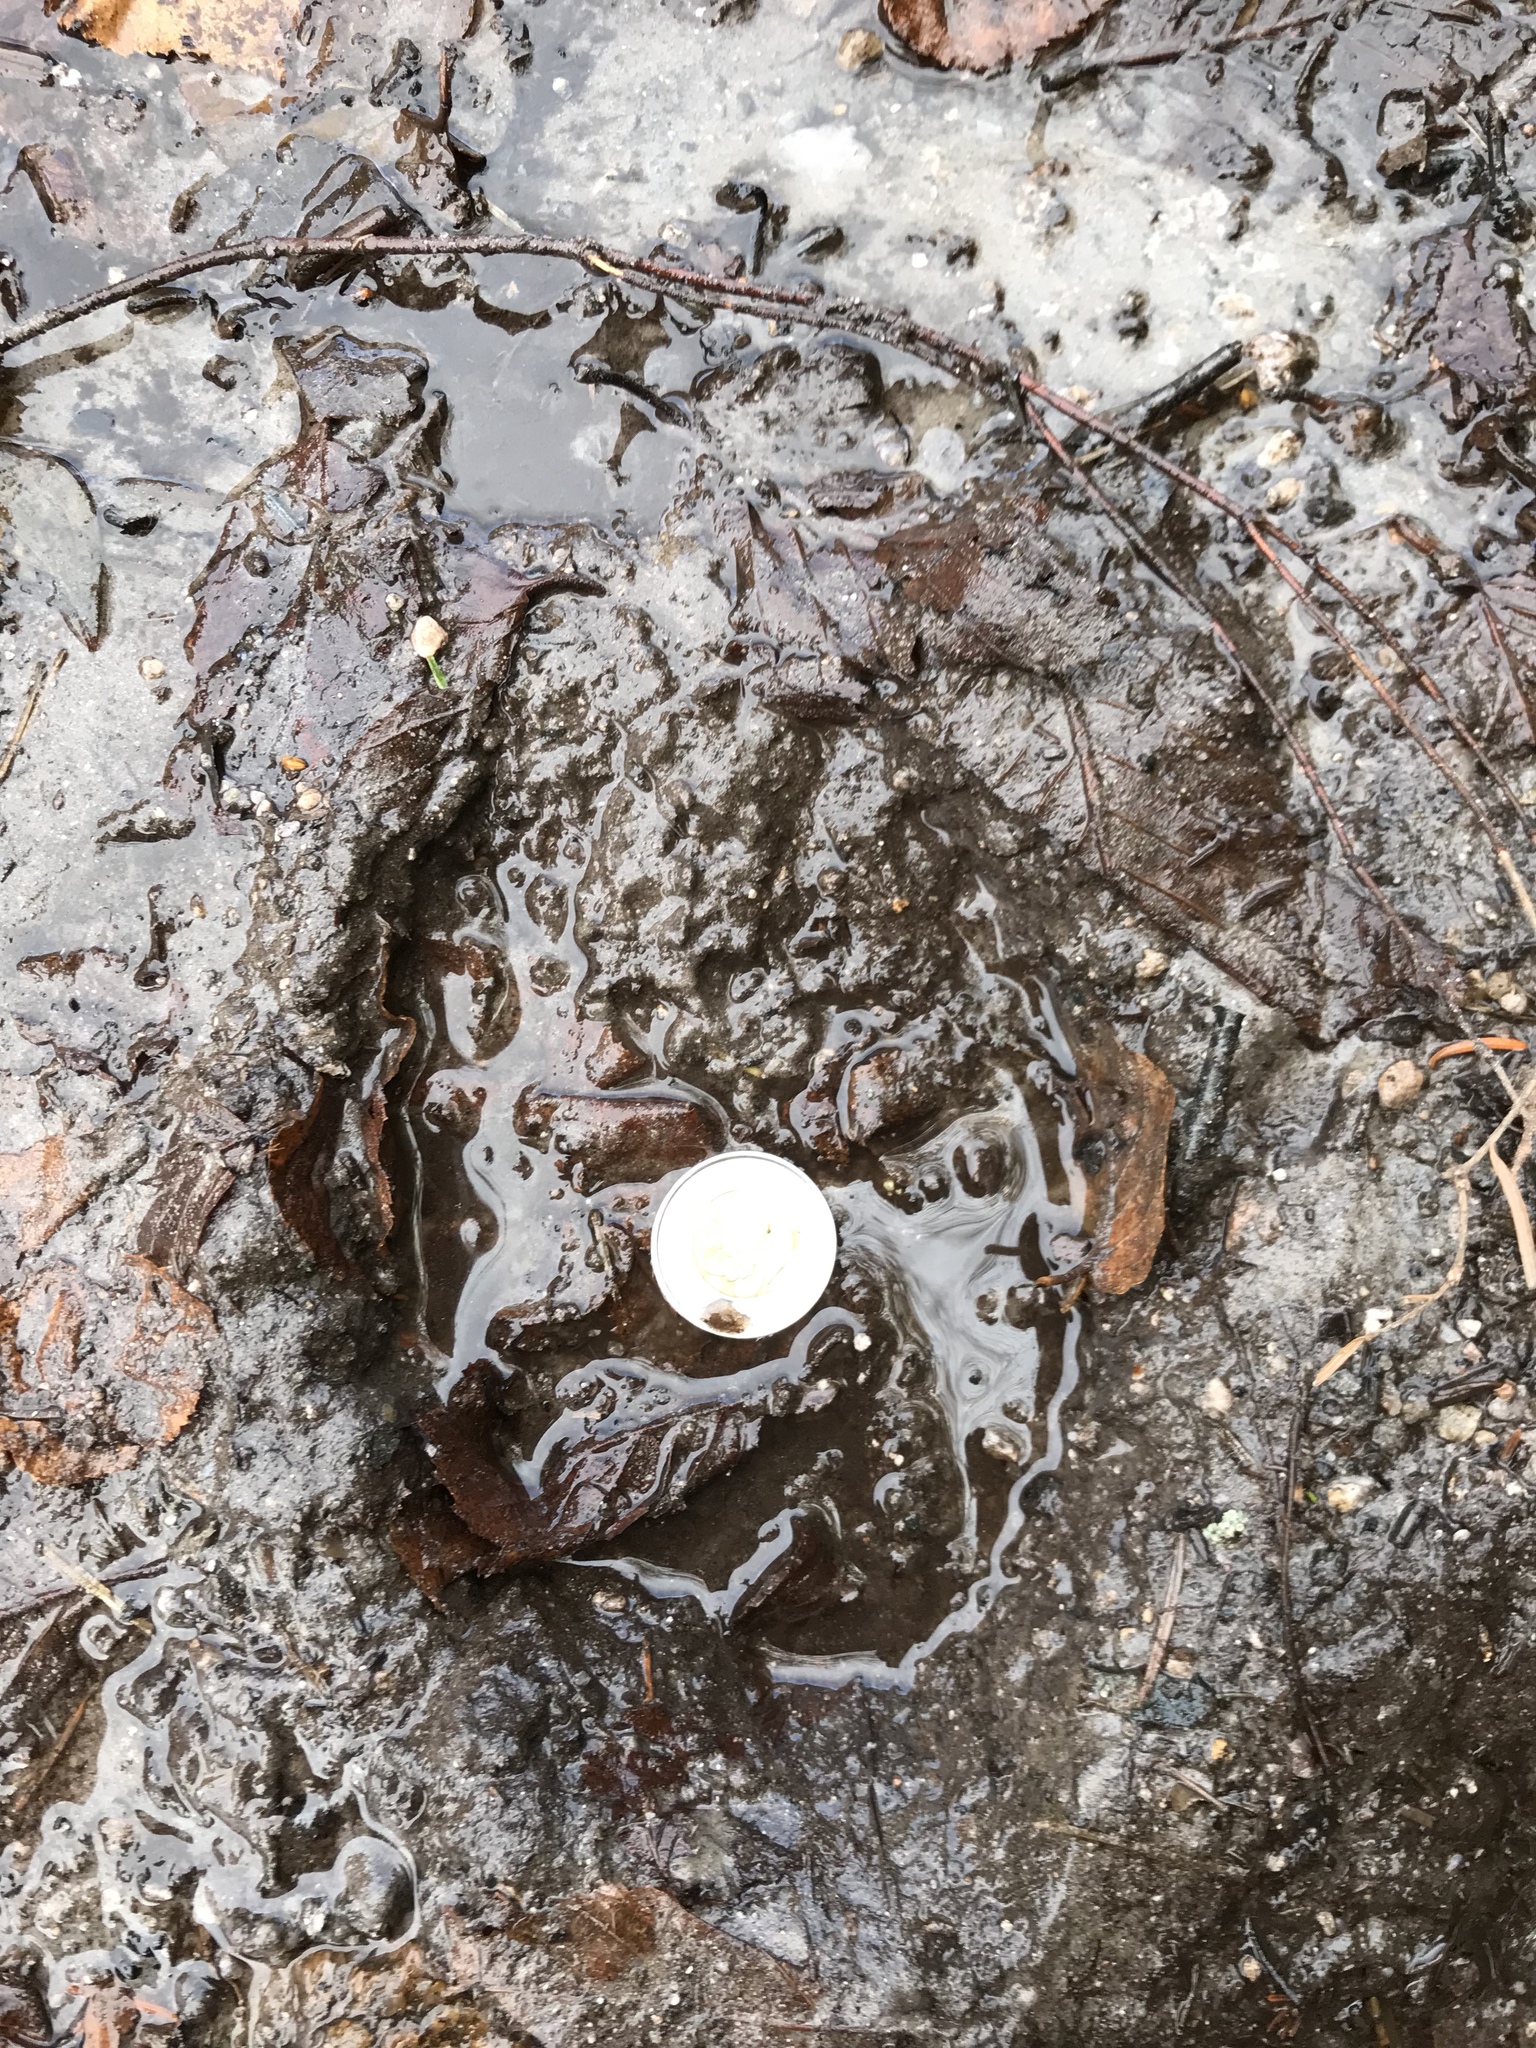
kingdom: Animalia
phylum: Chordata
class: Mammalia
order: Artiodactyla
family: Cervidae
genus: Alces
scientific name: Alces alces
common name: Moose
